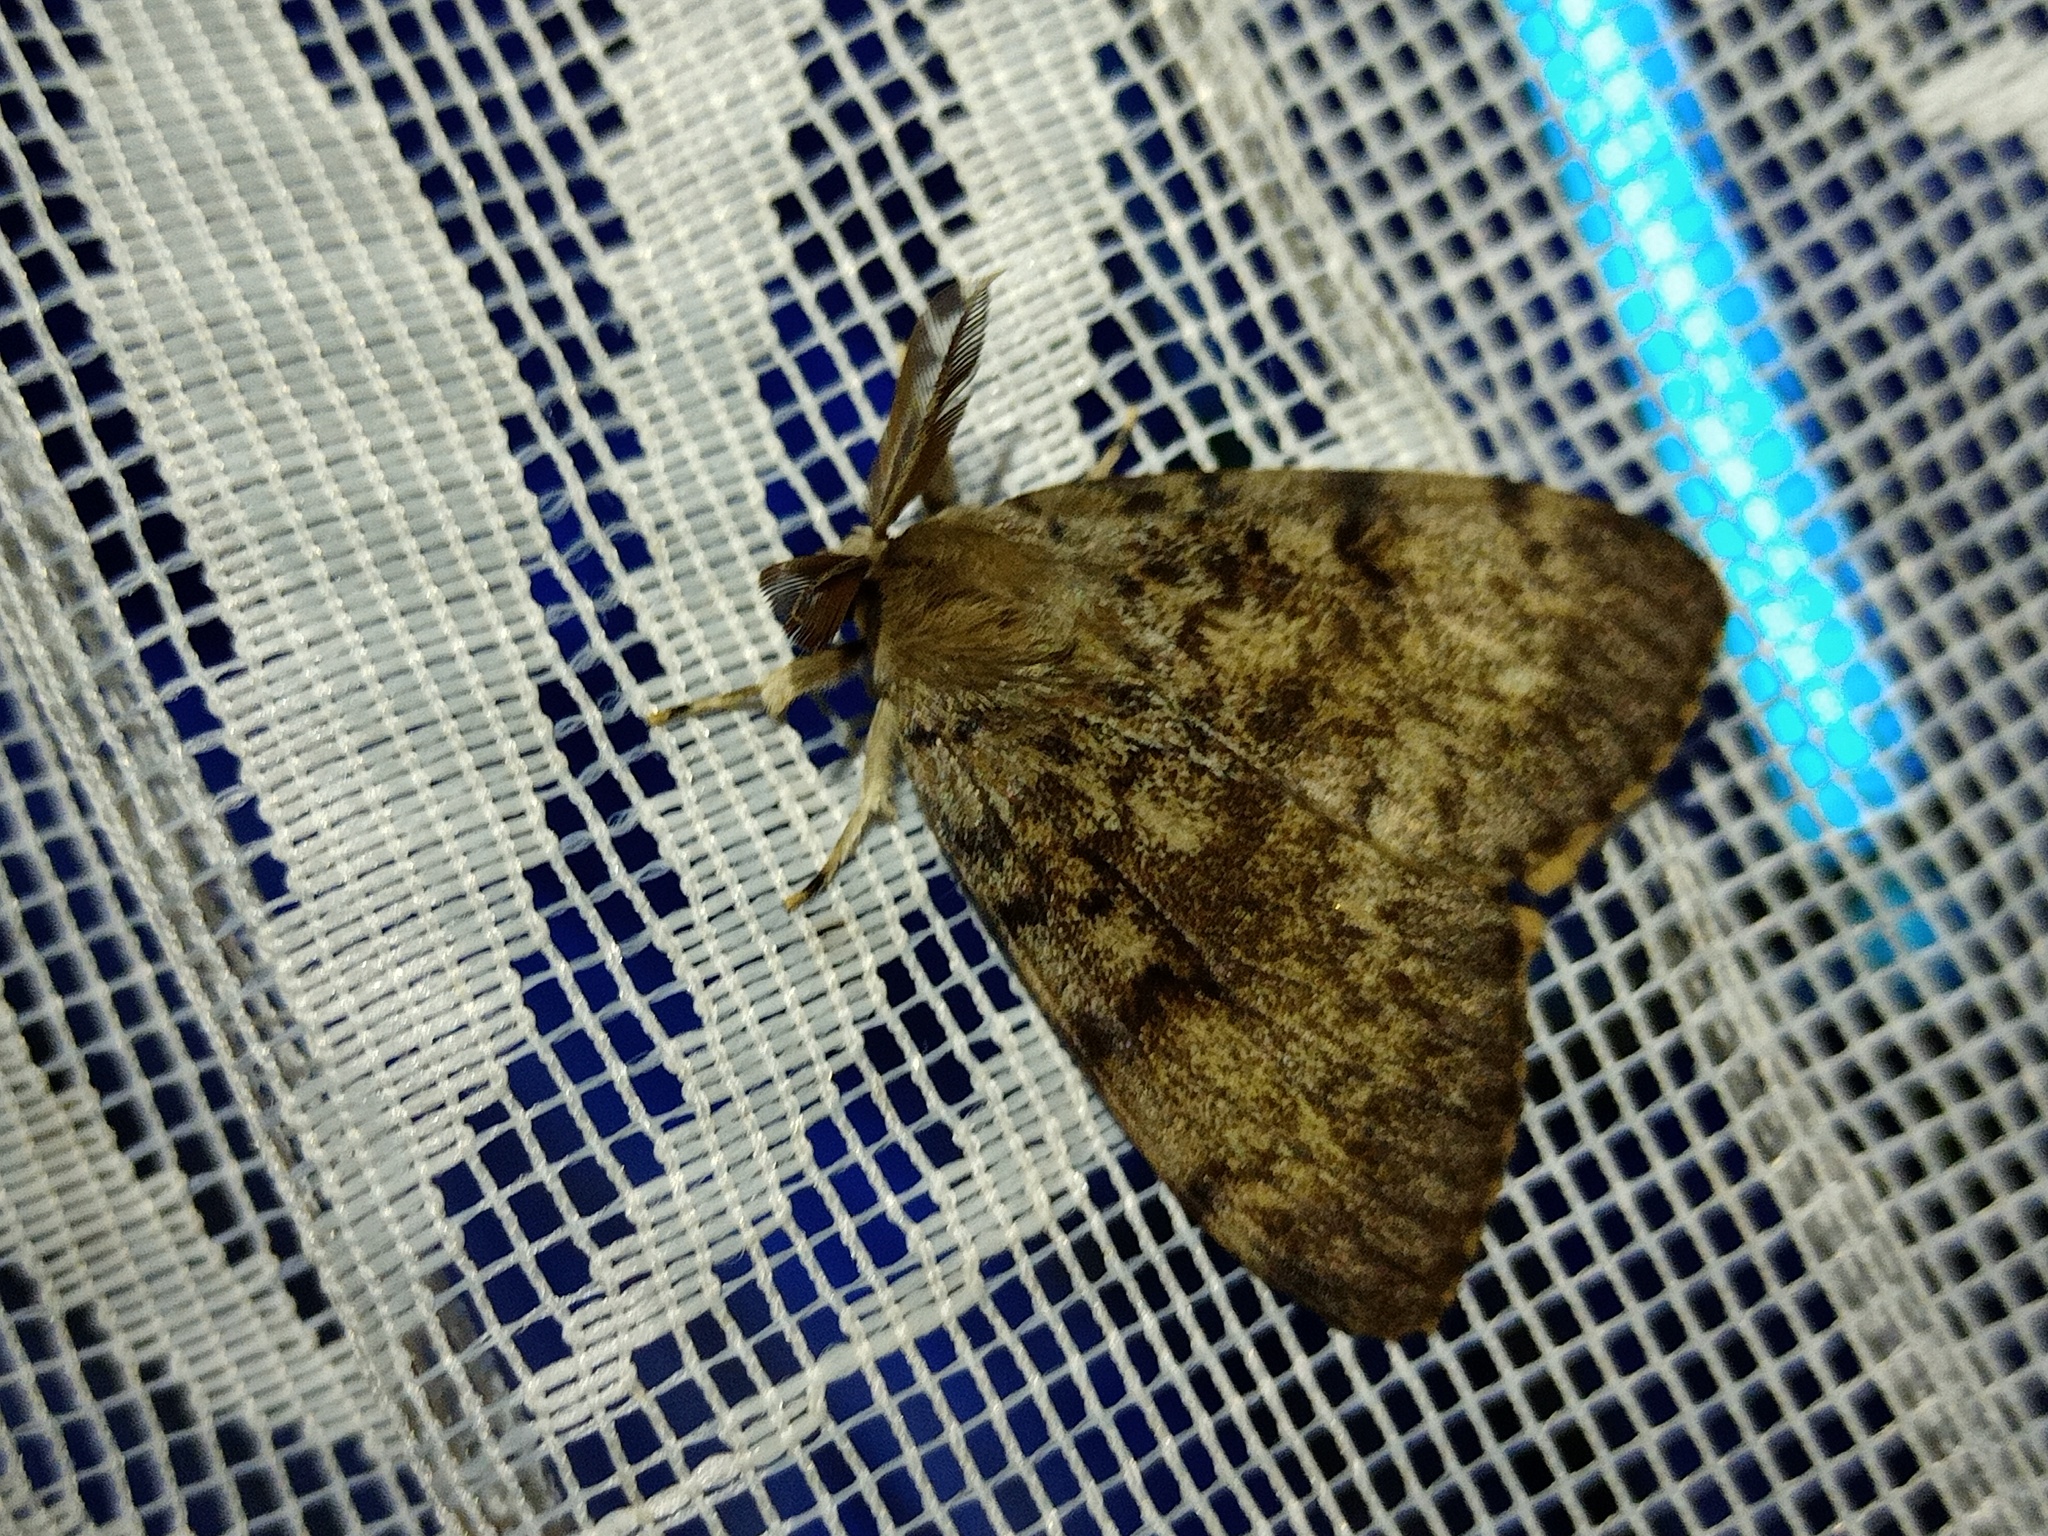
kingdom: Animalia
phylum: Arthropoda
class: Insecta
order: Lepidoptera
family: Erebidae
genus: Lymantria
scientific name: Lymantria dispar
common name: Gypsy moth
